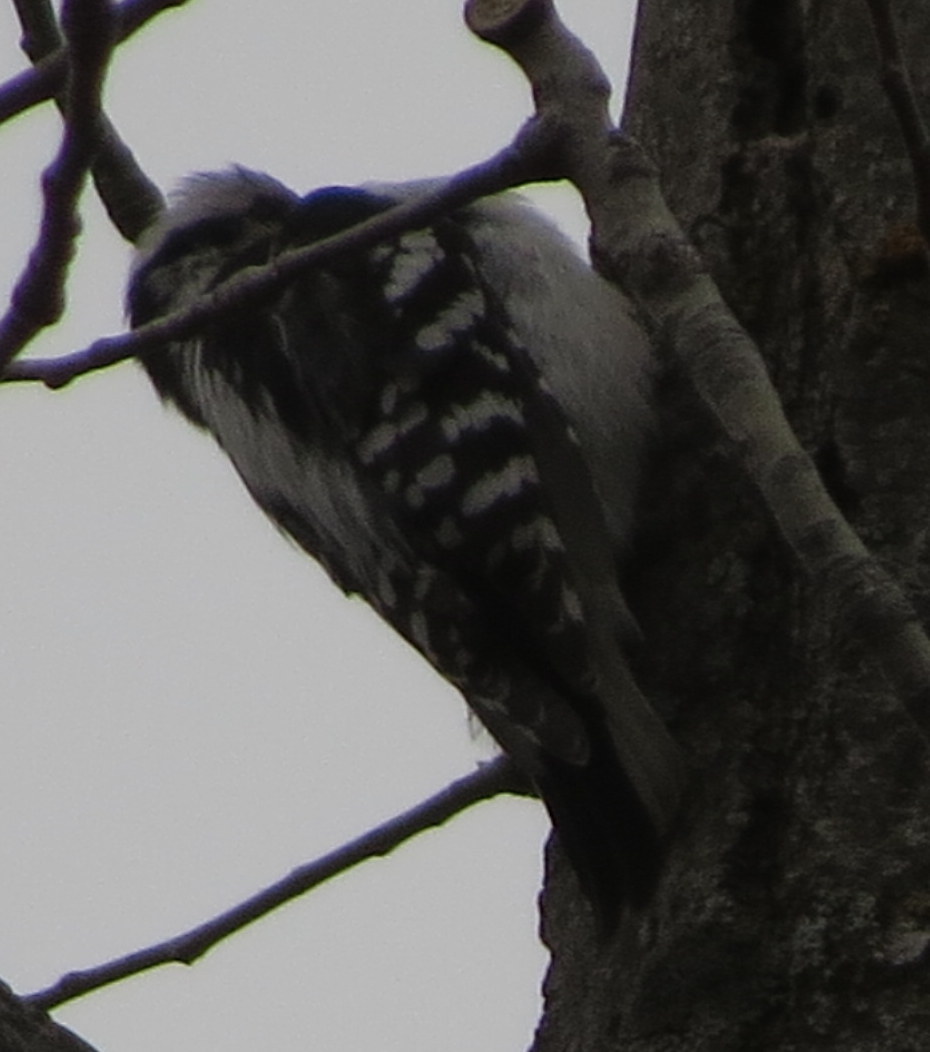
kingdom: Animalia
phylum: Chordata
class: Aves
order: Piciformes
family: Picidae
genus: Dryobates
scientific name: Dryobates pubescens
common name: Downy woodpecker
